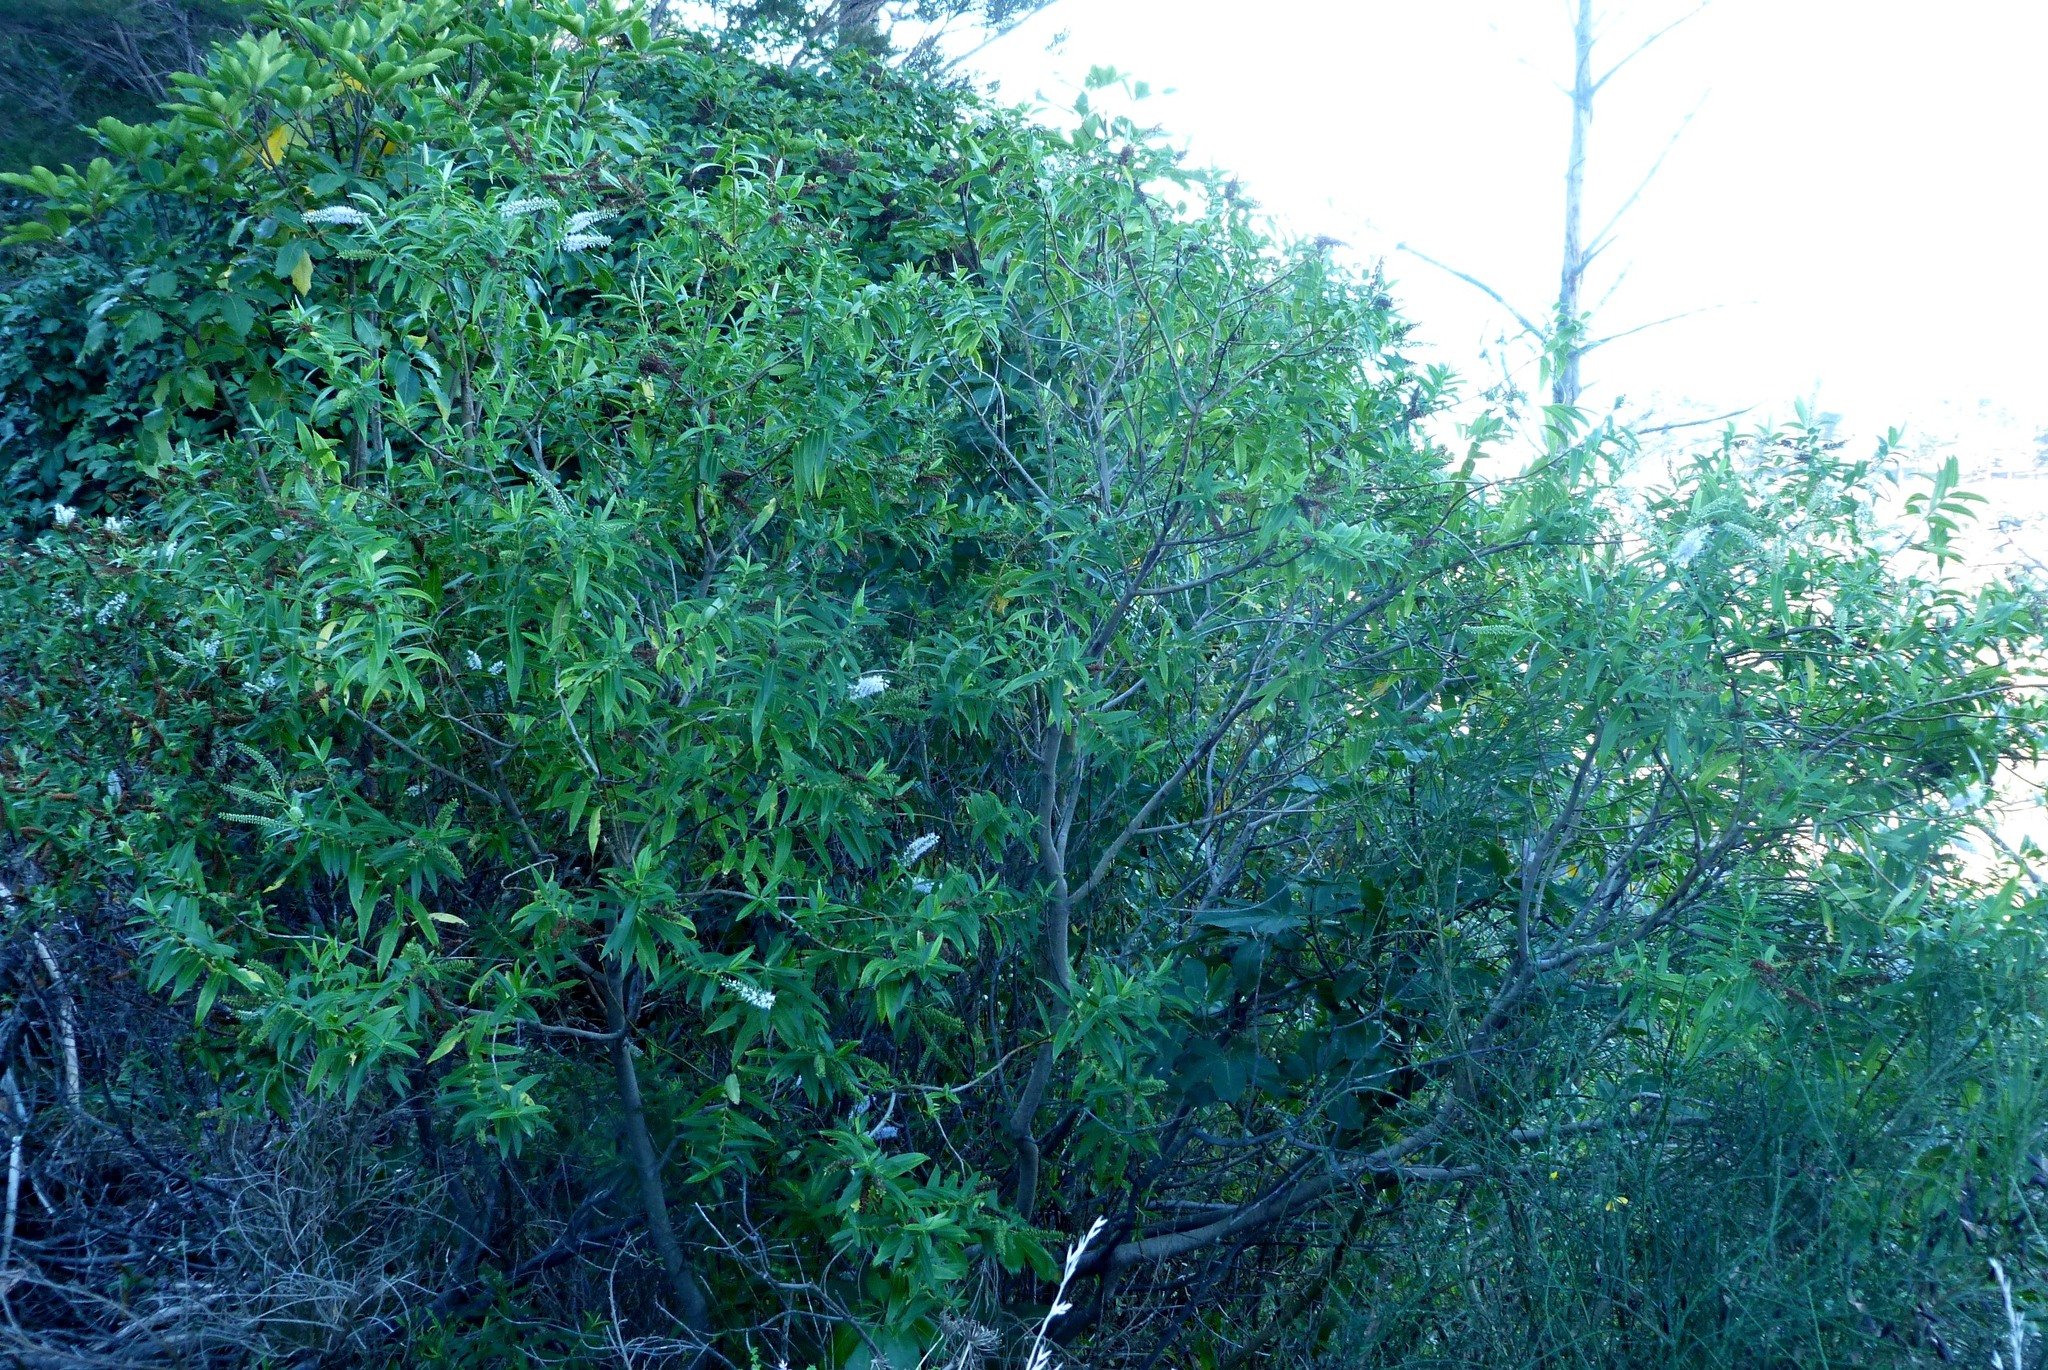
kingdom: Plantae
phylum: Tracheophyta
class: Magnoliopsida
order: Lamiales
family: Plantaginaceae
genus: Veronica
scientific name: Veronica salicifolia
